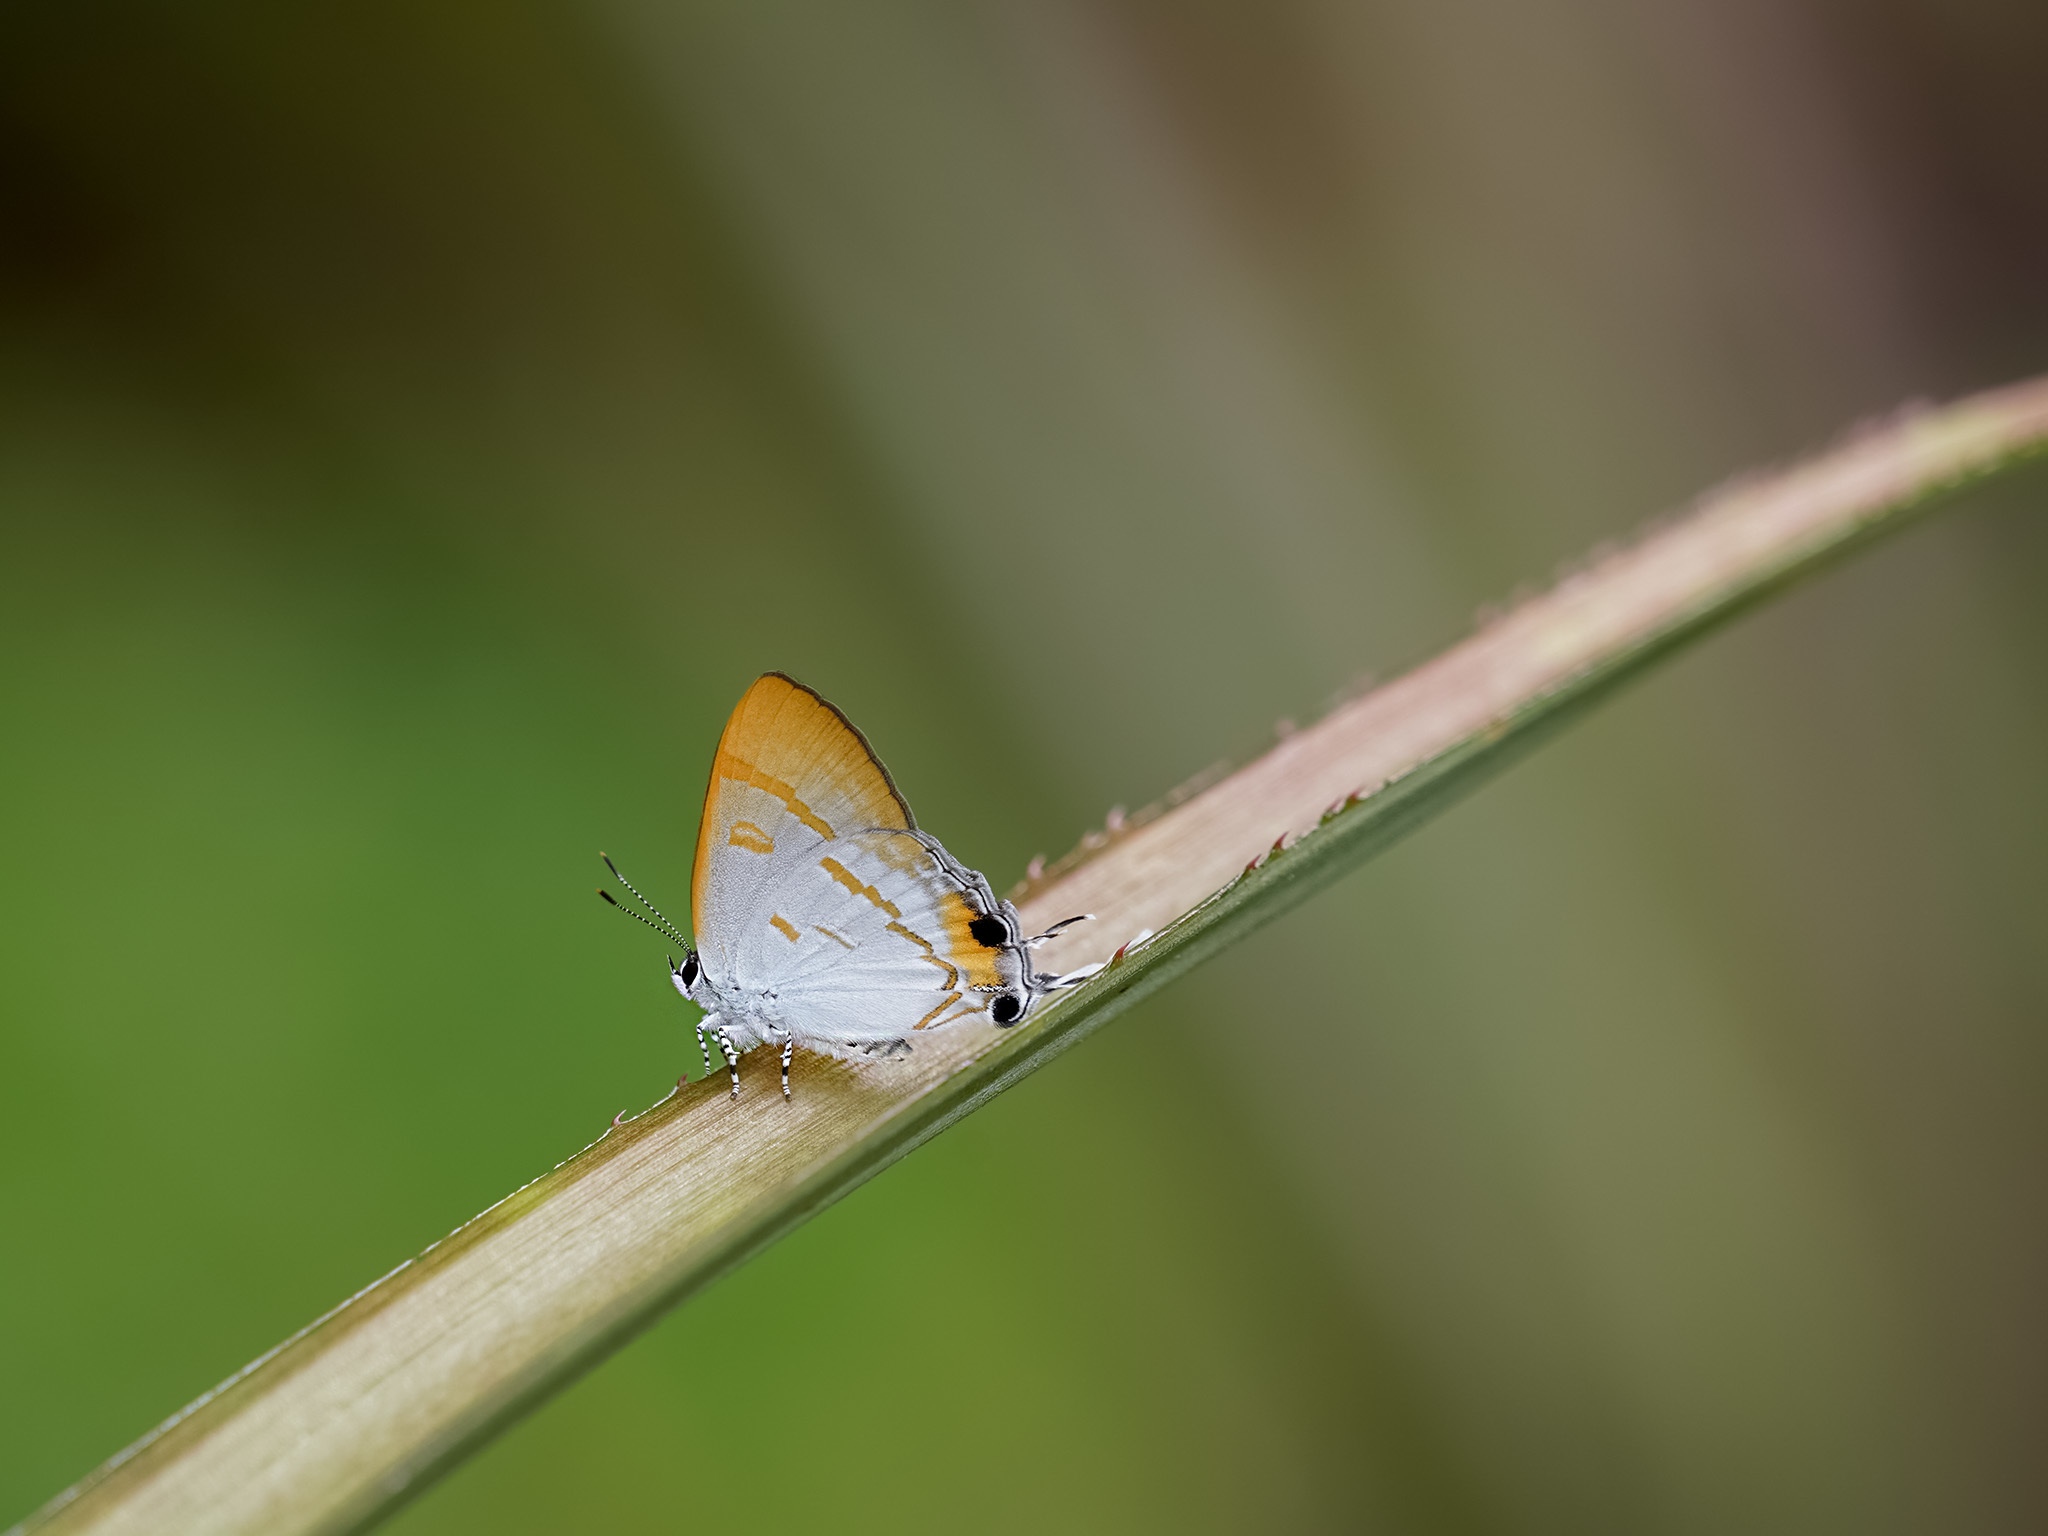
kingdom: Animalia
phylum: Arthropoda
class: Insecta
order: Lepidoptera
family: Lycaenidae
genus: Hypolycaena
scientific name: Hypolycaena thecloides
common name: Dark tit
